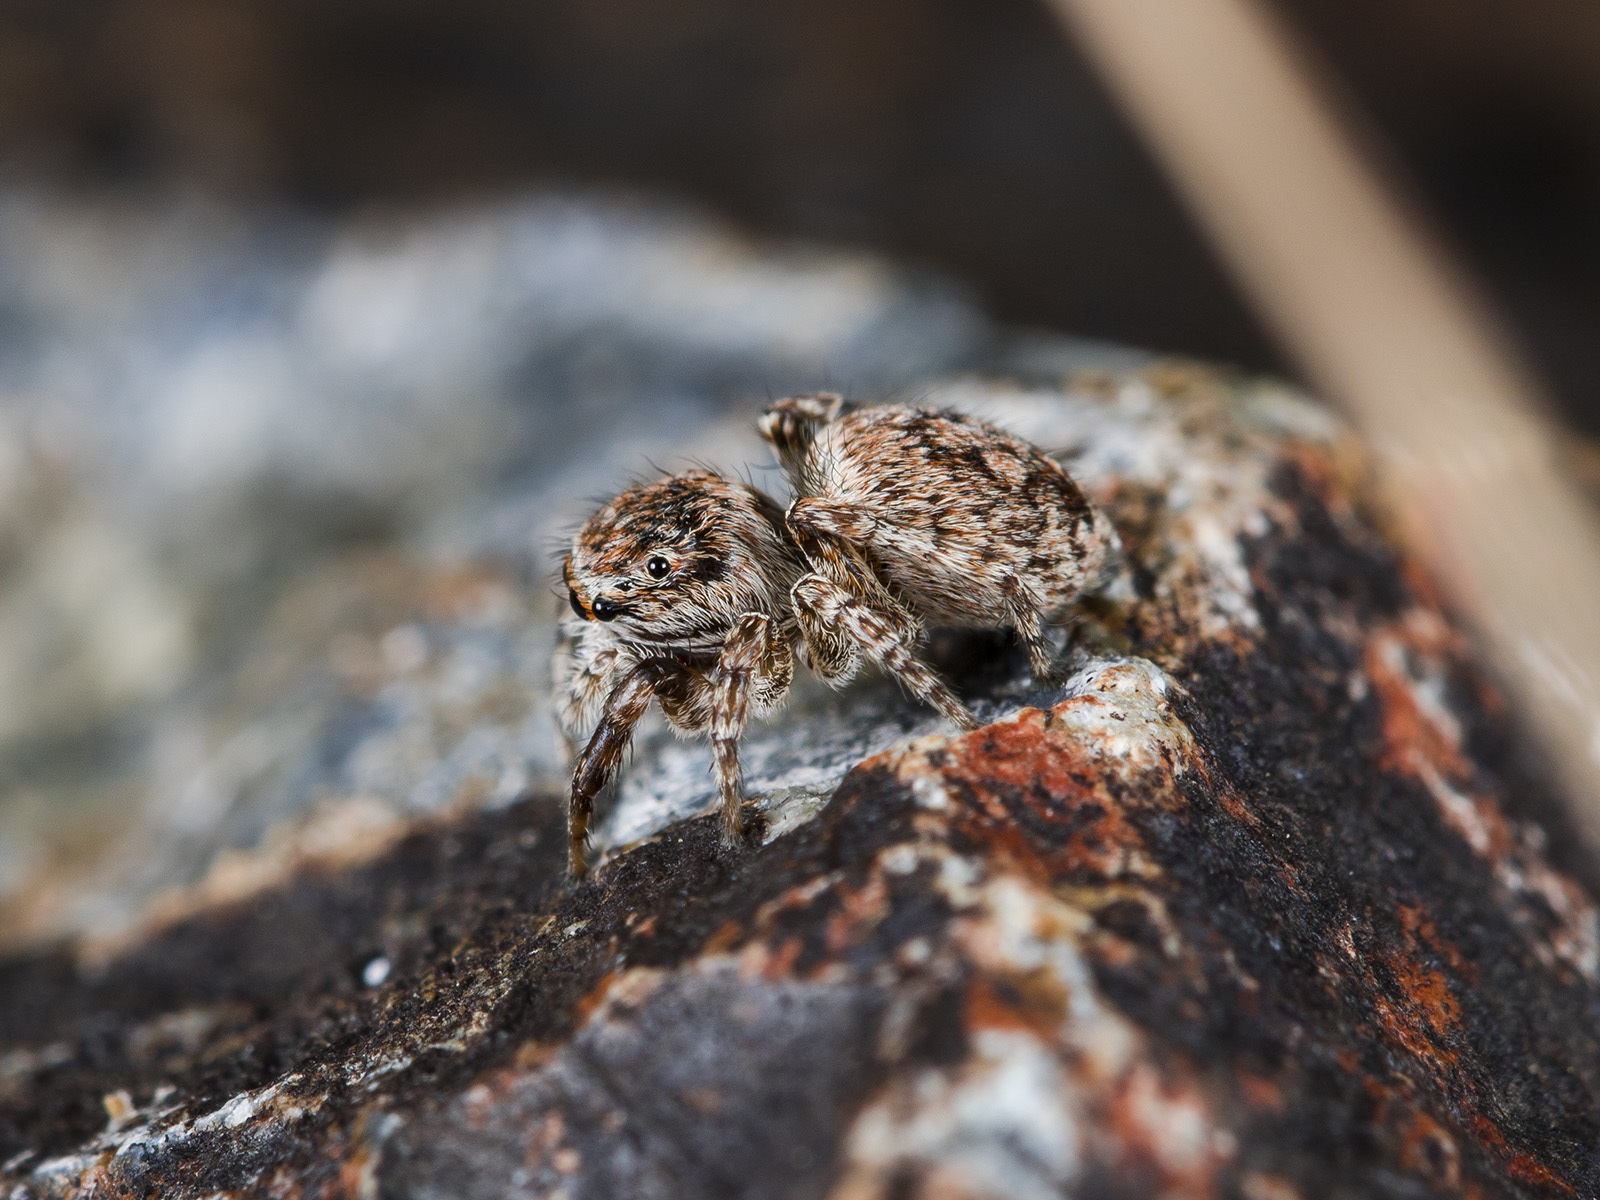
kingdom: Animalia
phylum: Arthropoda
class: Arachnida
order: Araneae
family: Salticidae
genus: Attulus
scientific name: Attulus mirandus
